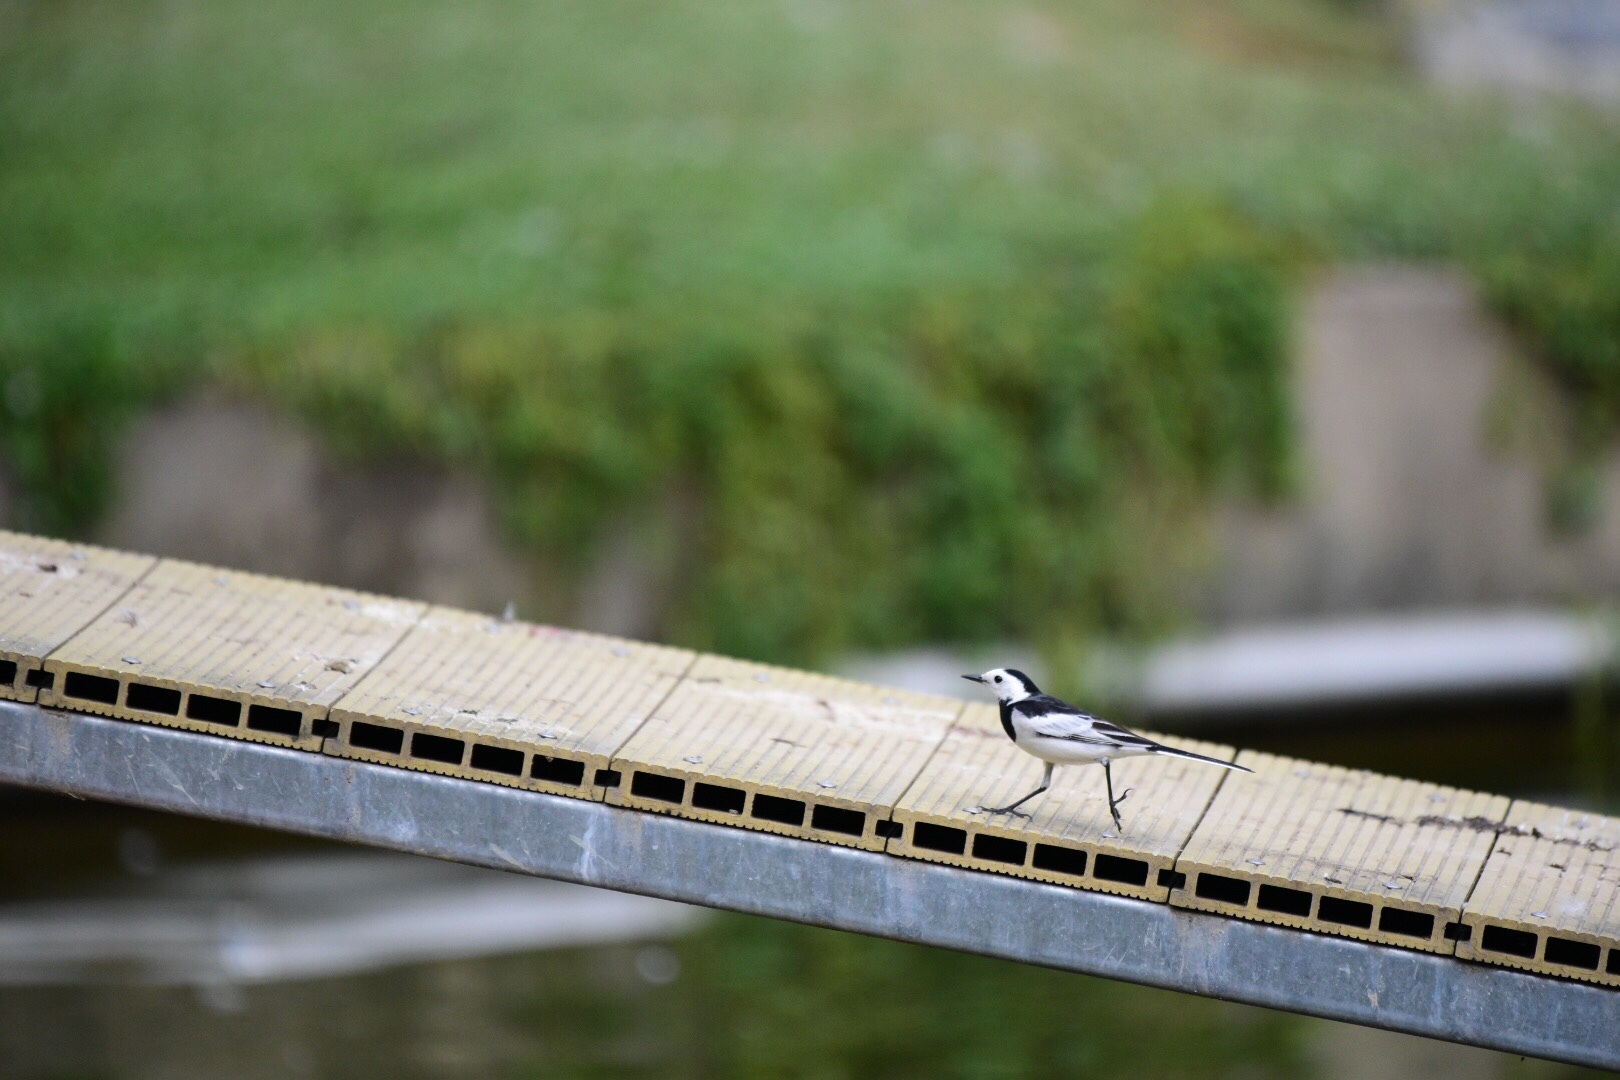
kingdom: Animalia
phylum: Chordata
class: Aves
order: Passeriformes
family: Motacillidae
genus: Motacilla
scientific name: Motacilla alba
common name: White wagtail
